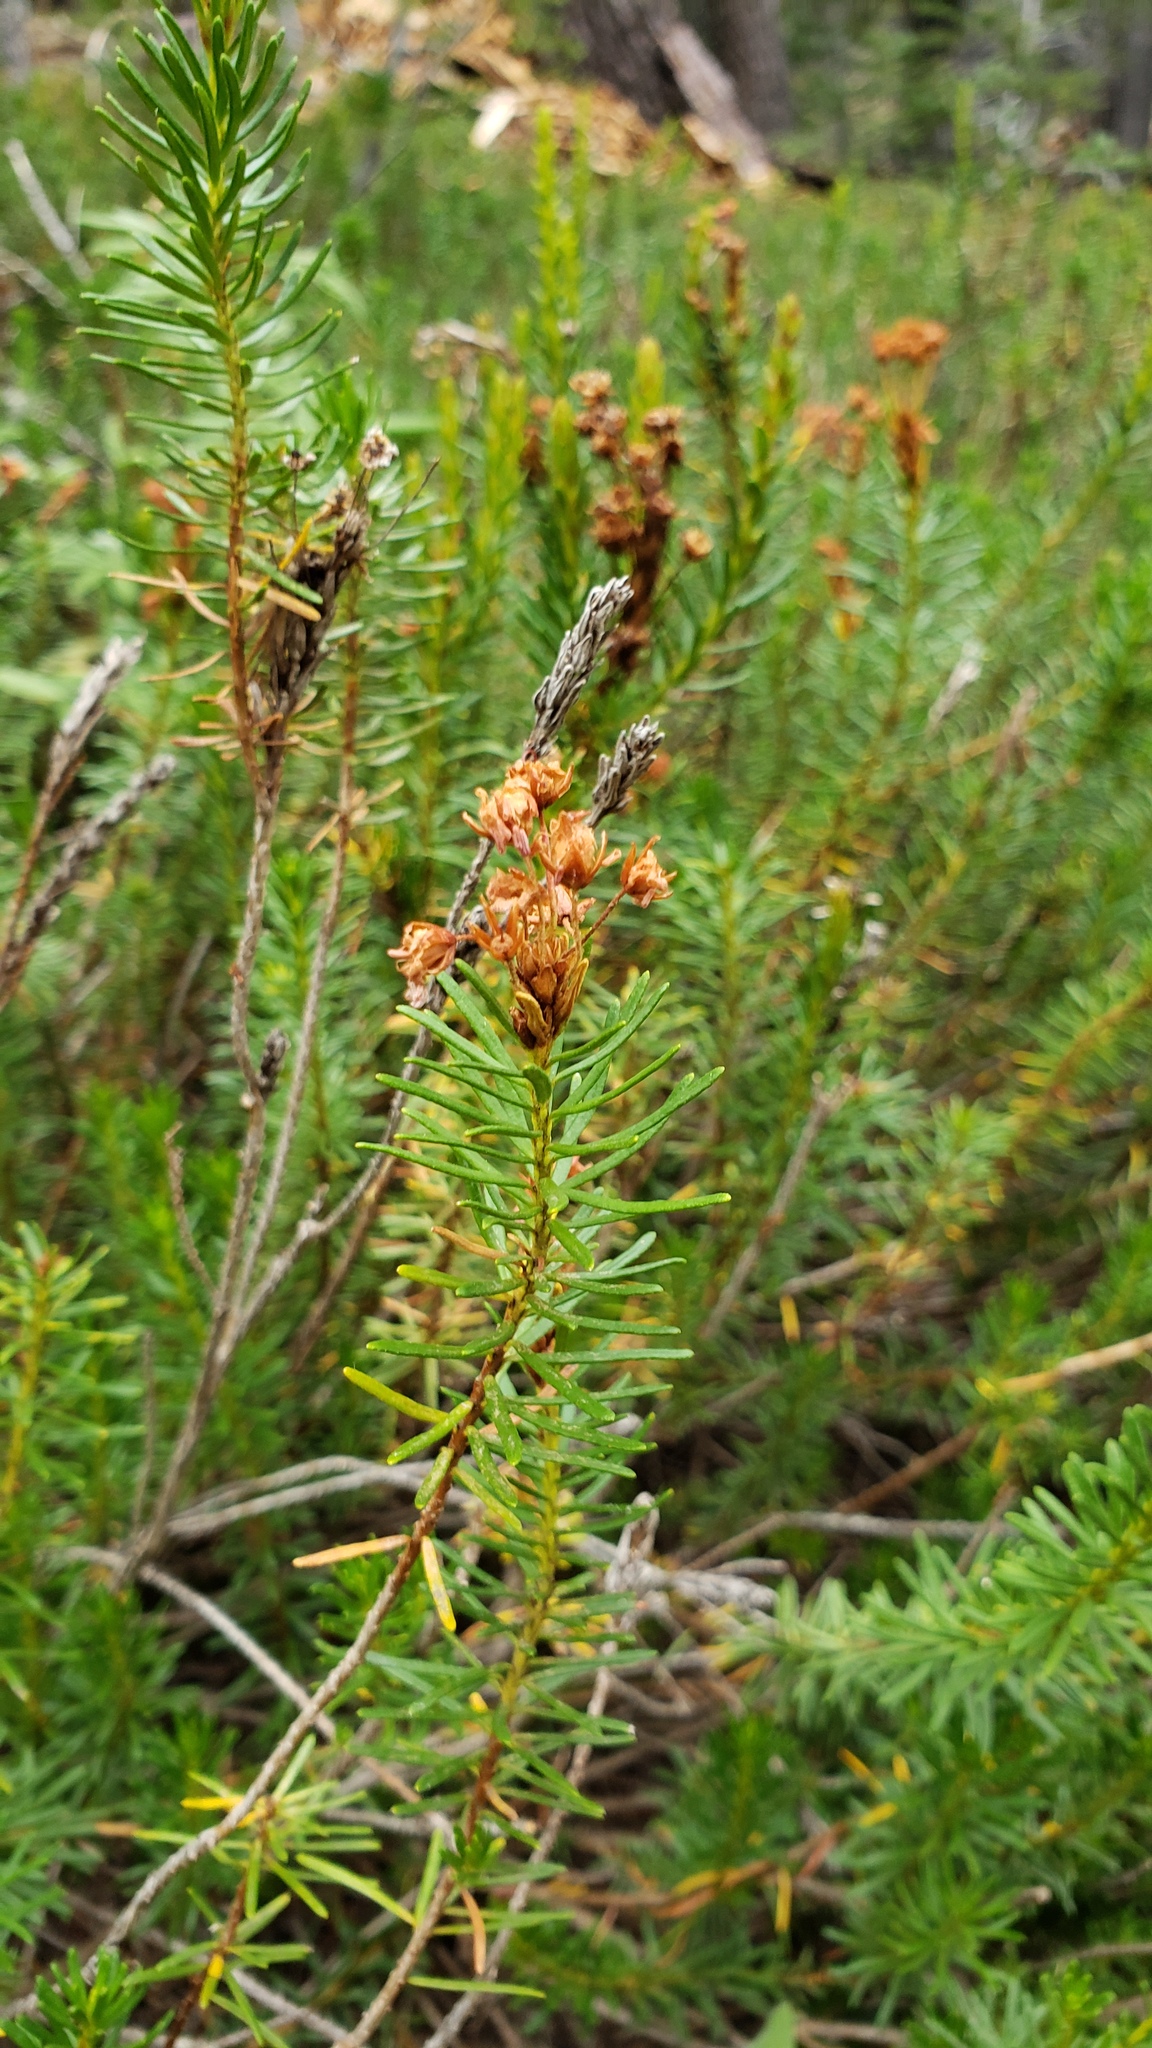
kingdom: Plantae
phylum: Tracheophyta
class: Magnoliopsida
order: Ericales
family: Ericaceae
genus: Phyllodoce
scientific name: Phyllodoce breweri
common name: Brewer's mountain-heather
